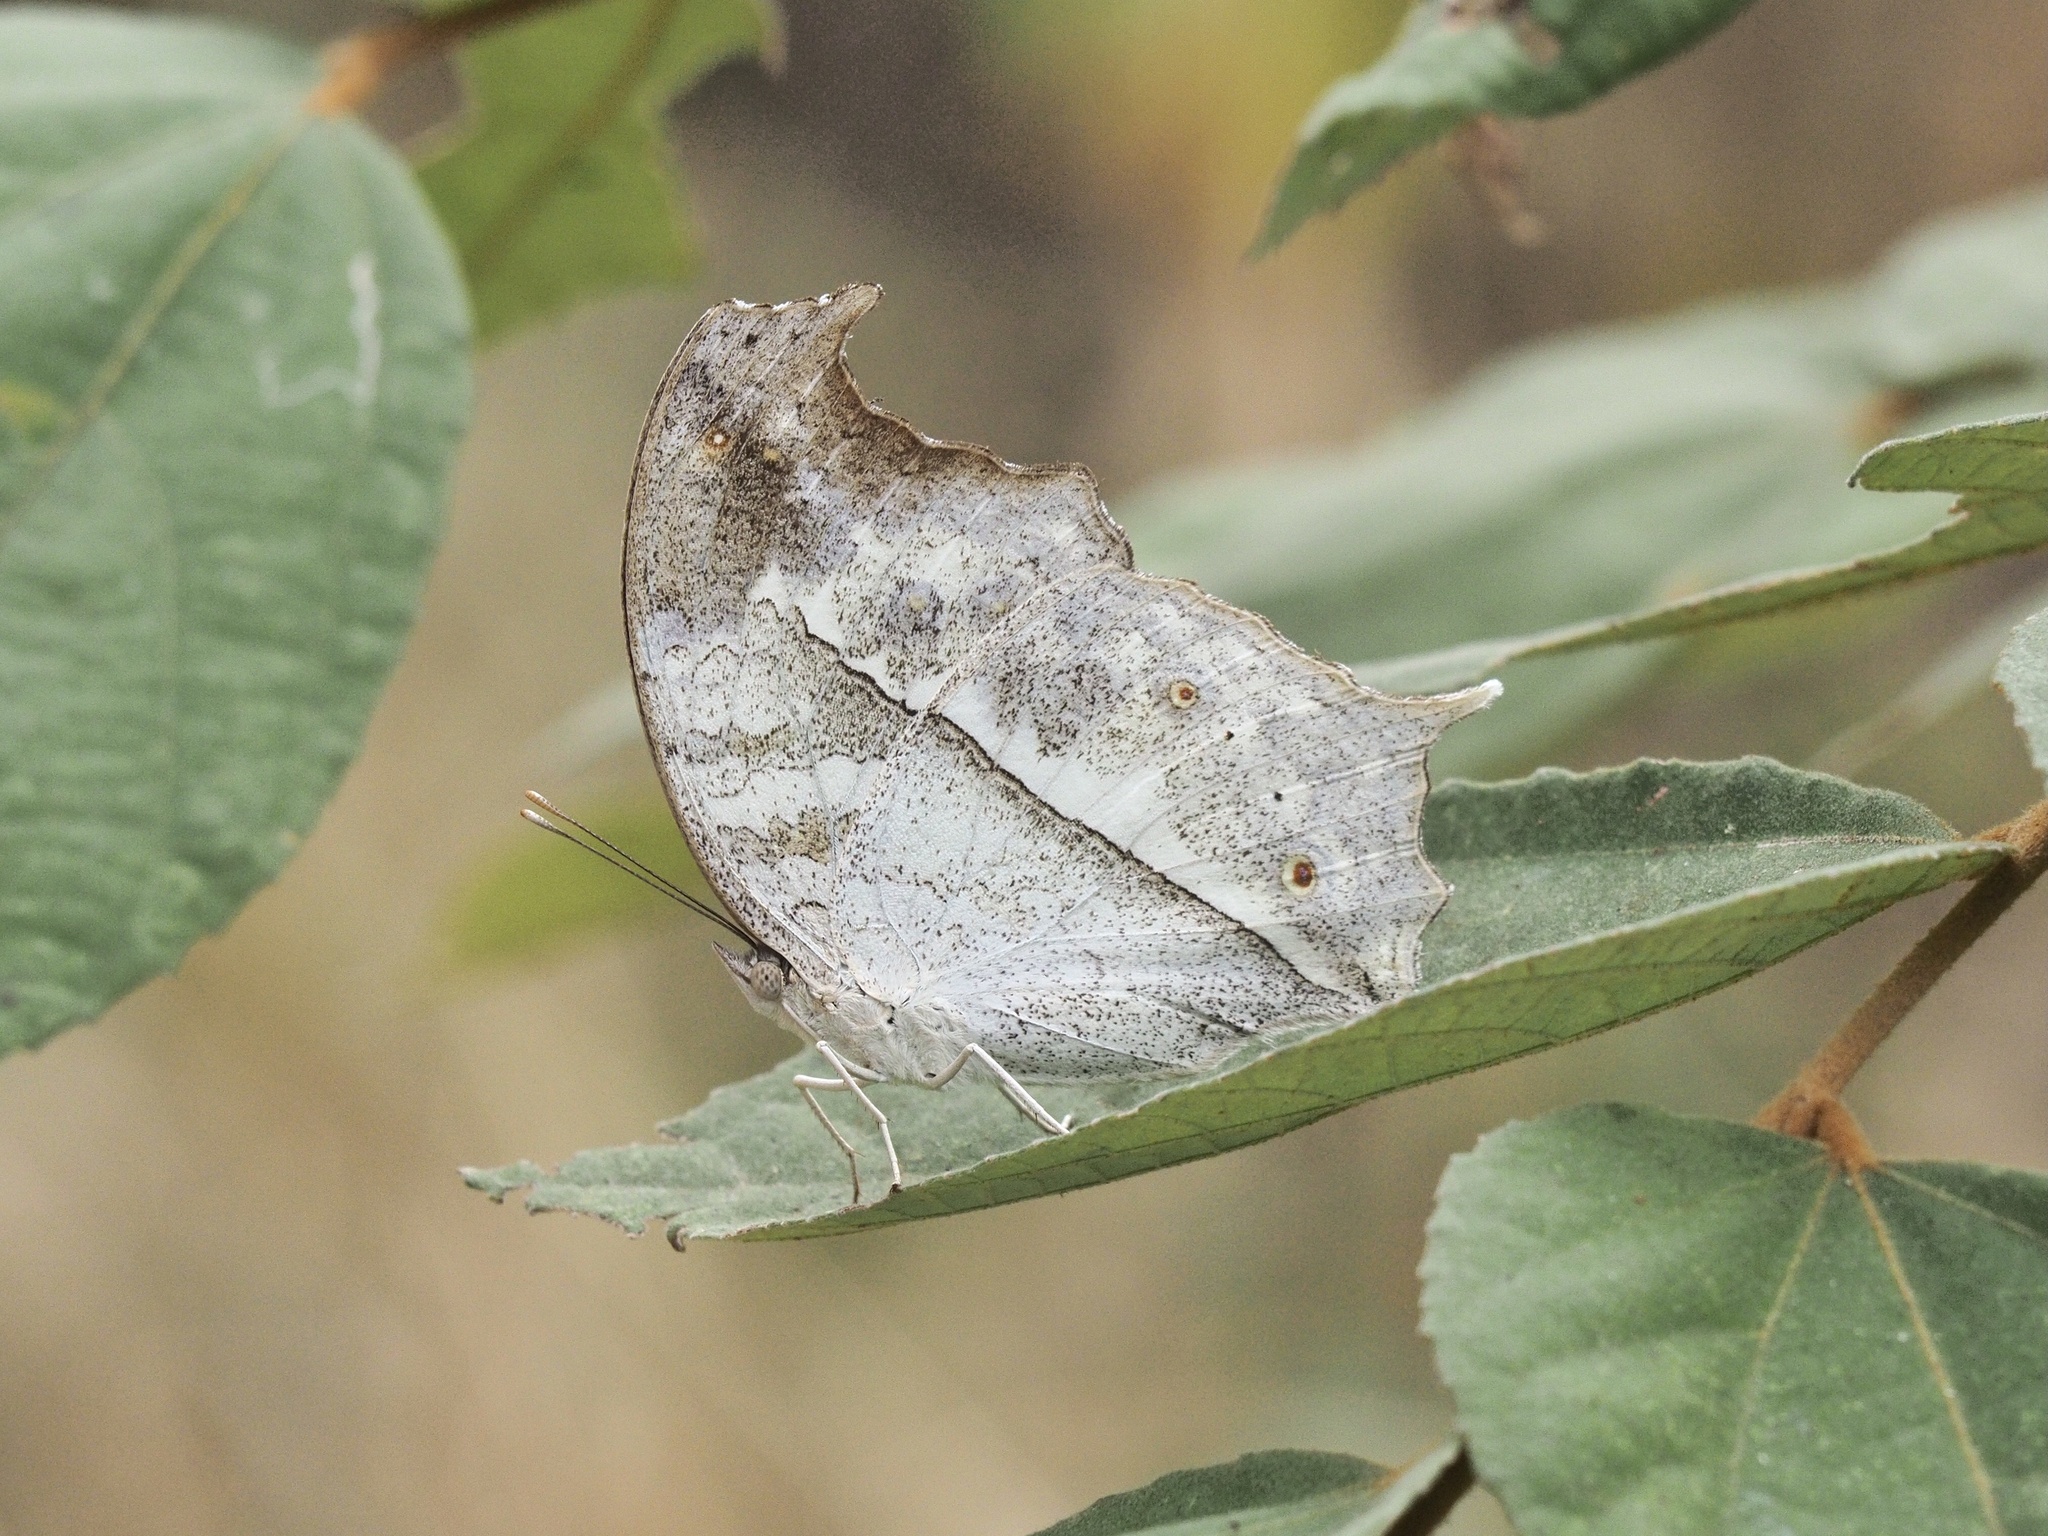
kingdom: Animalia
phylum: Arthropoda
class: Insecta
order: Lepidoptera
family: Nymphalidae
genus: Salamis
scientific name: Salamis
